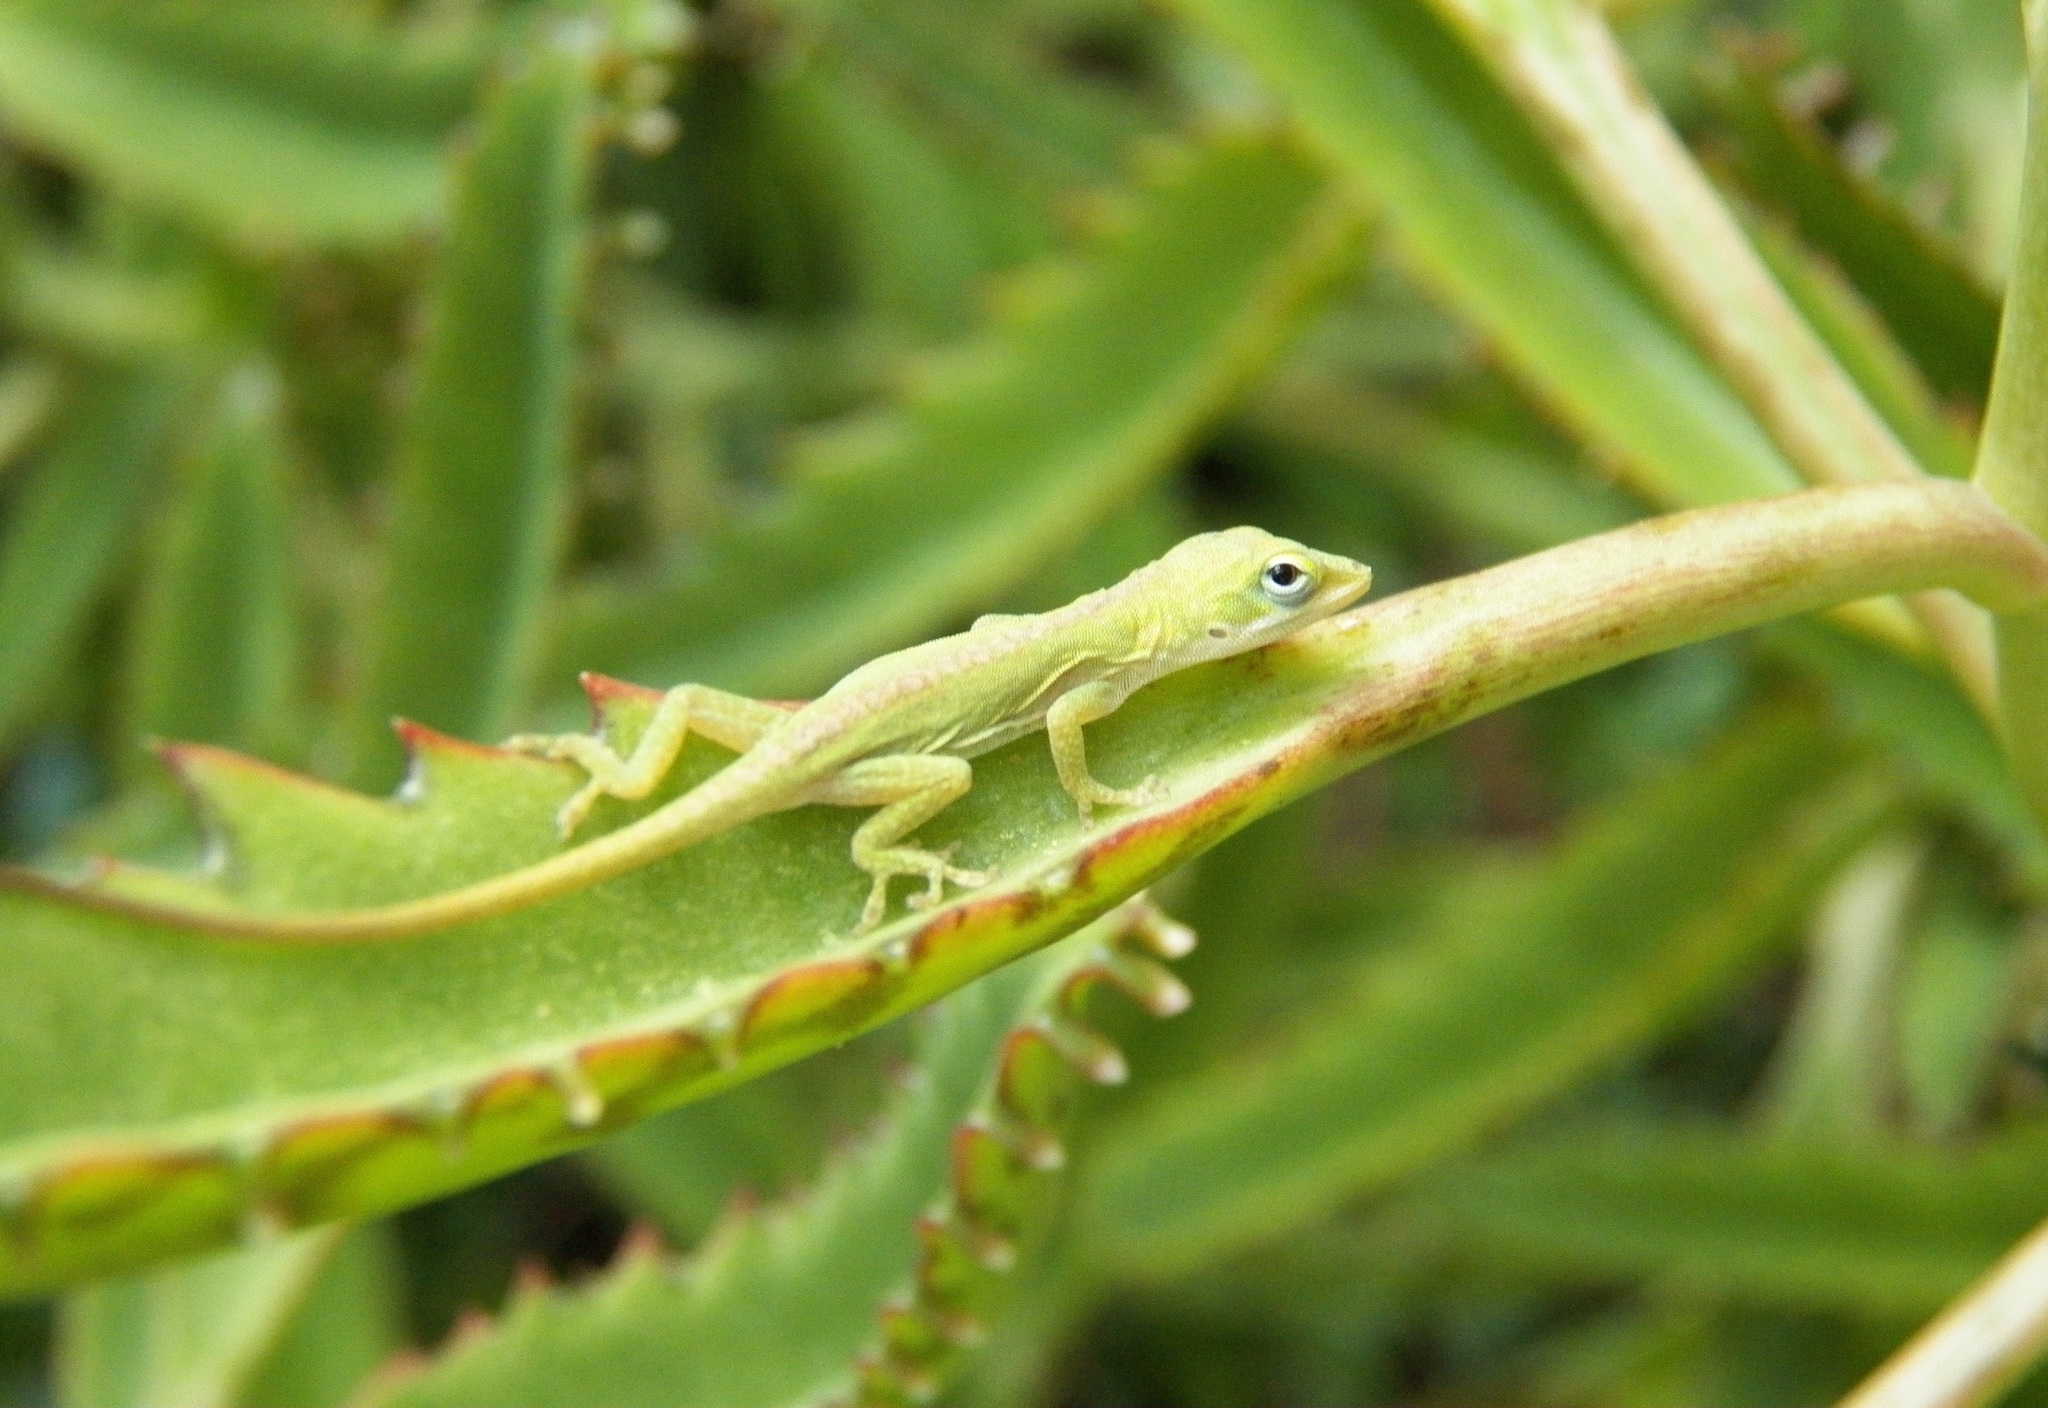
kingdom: Animalia
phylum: Chordata
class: Squamata
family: Dactyloidae
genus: Anolis
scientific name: Anolis carolinensis
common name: Green anole
